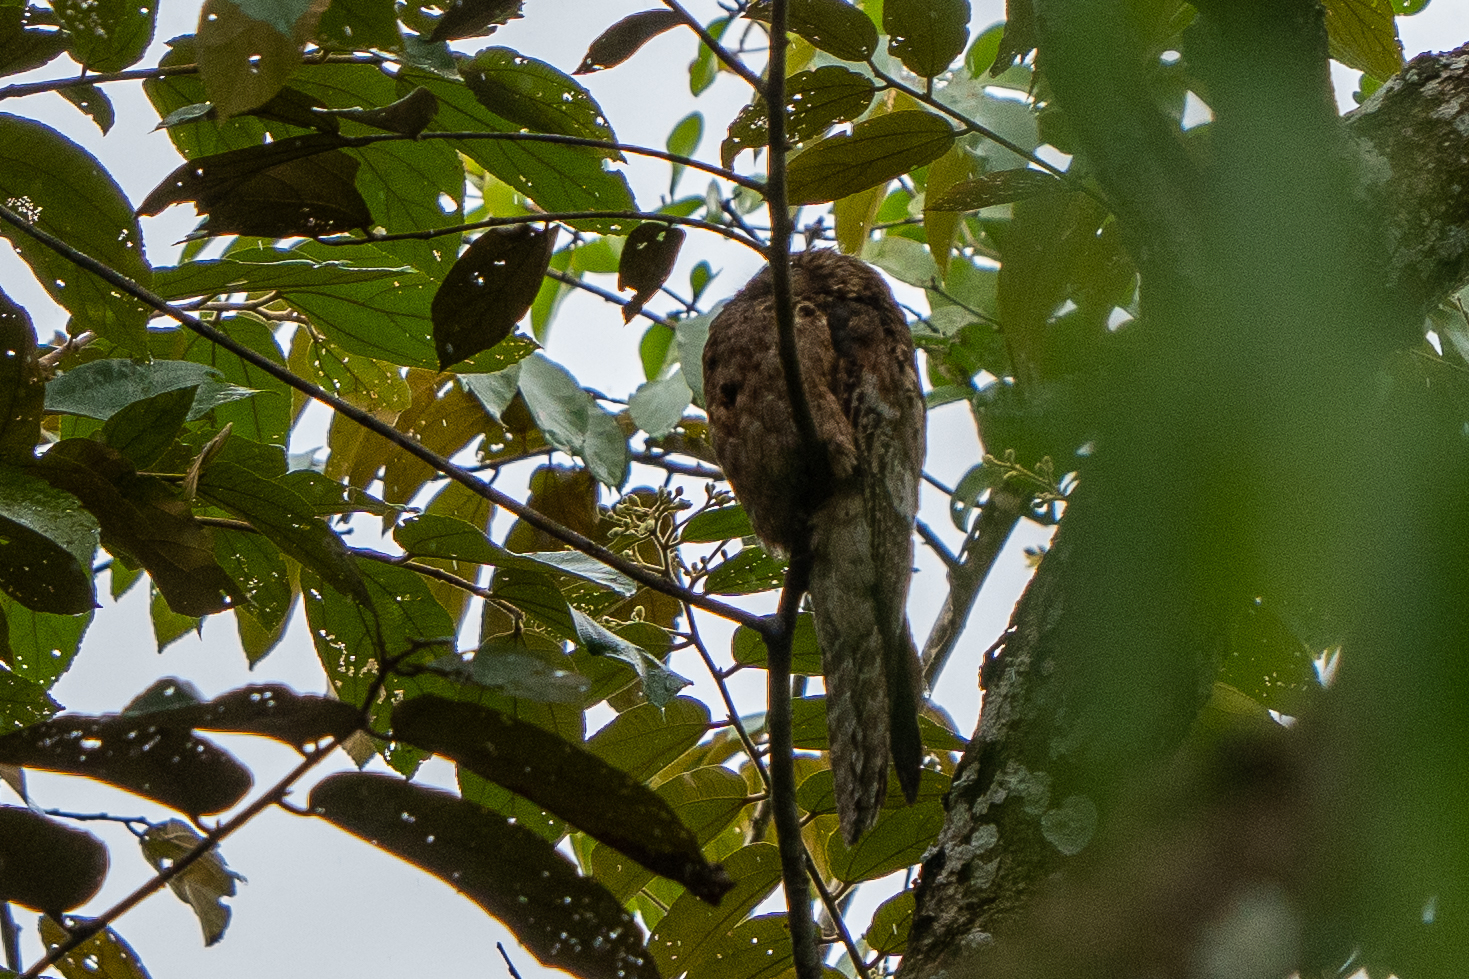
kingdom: Animalia
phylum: Chordata
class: Aves
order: Nyctibiiformes
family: Nyctibiidae
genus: Nyctibius
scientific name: Nyctibius griseus
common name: Common potoo
